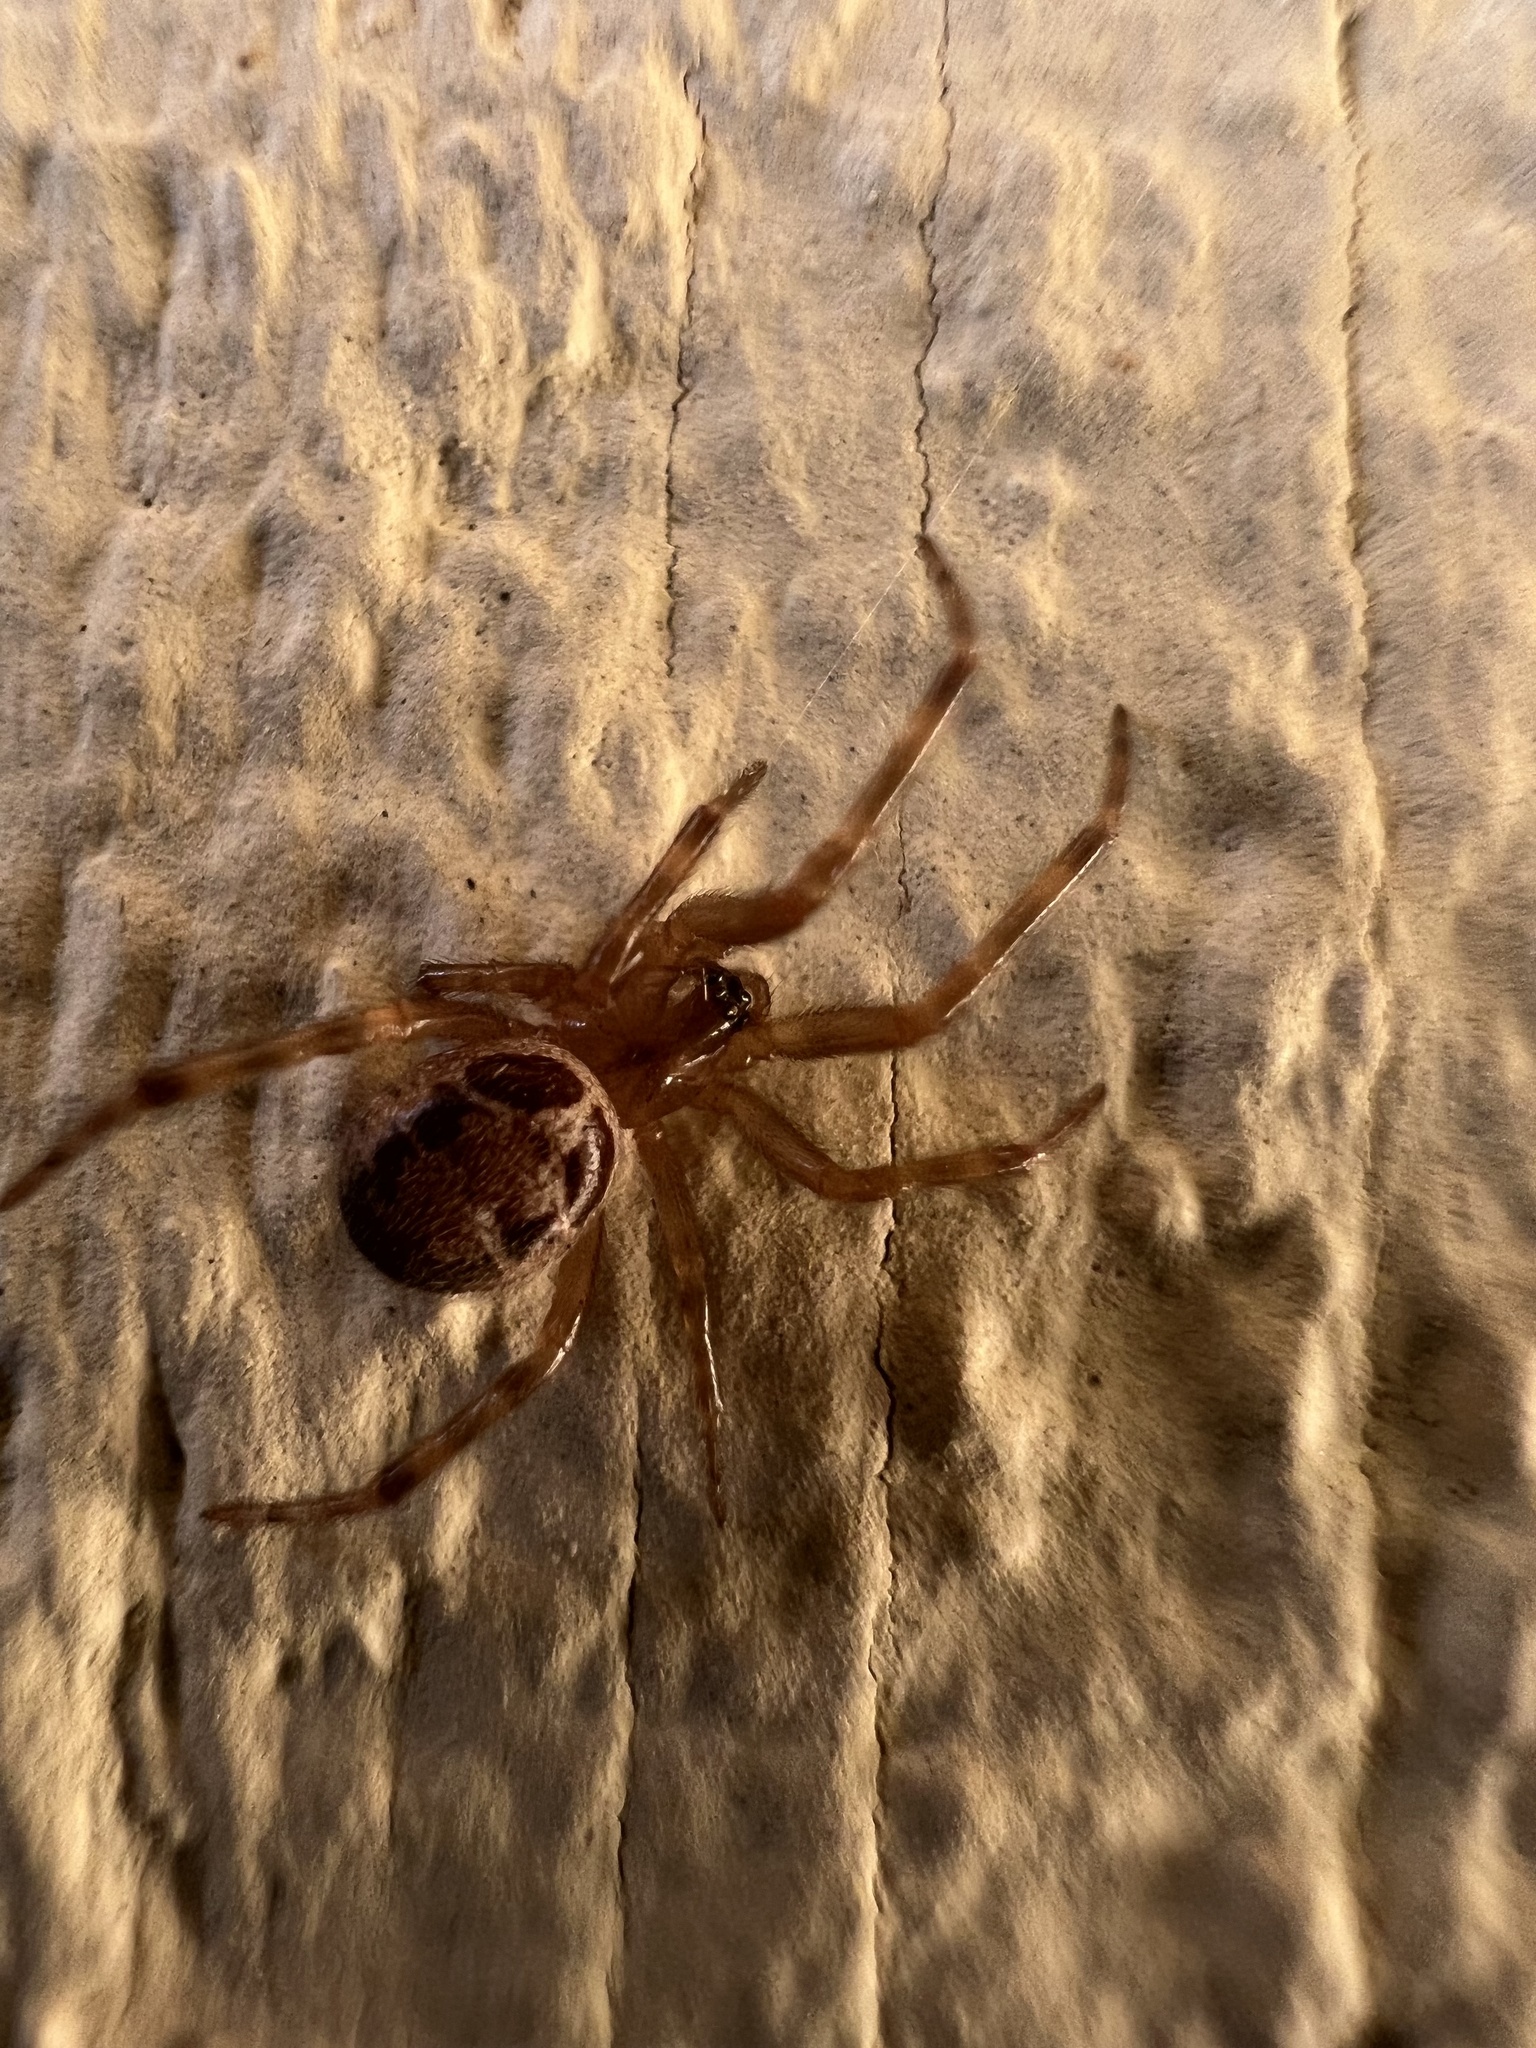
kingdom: Animalia
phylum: Arthropoda
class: Arachnida
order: Araneae
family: Theridiidae
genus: Steatoda
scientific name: Steatoda nobilis
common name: Cobweb weaver
